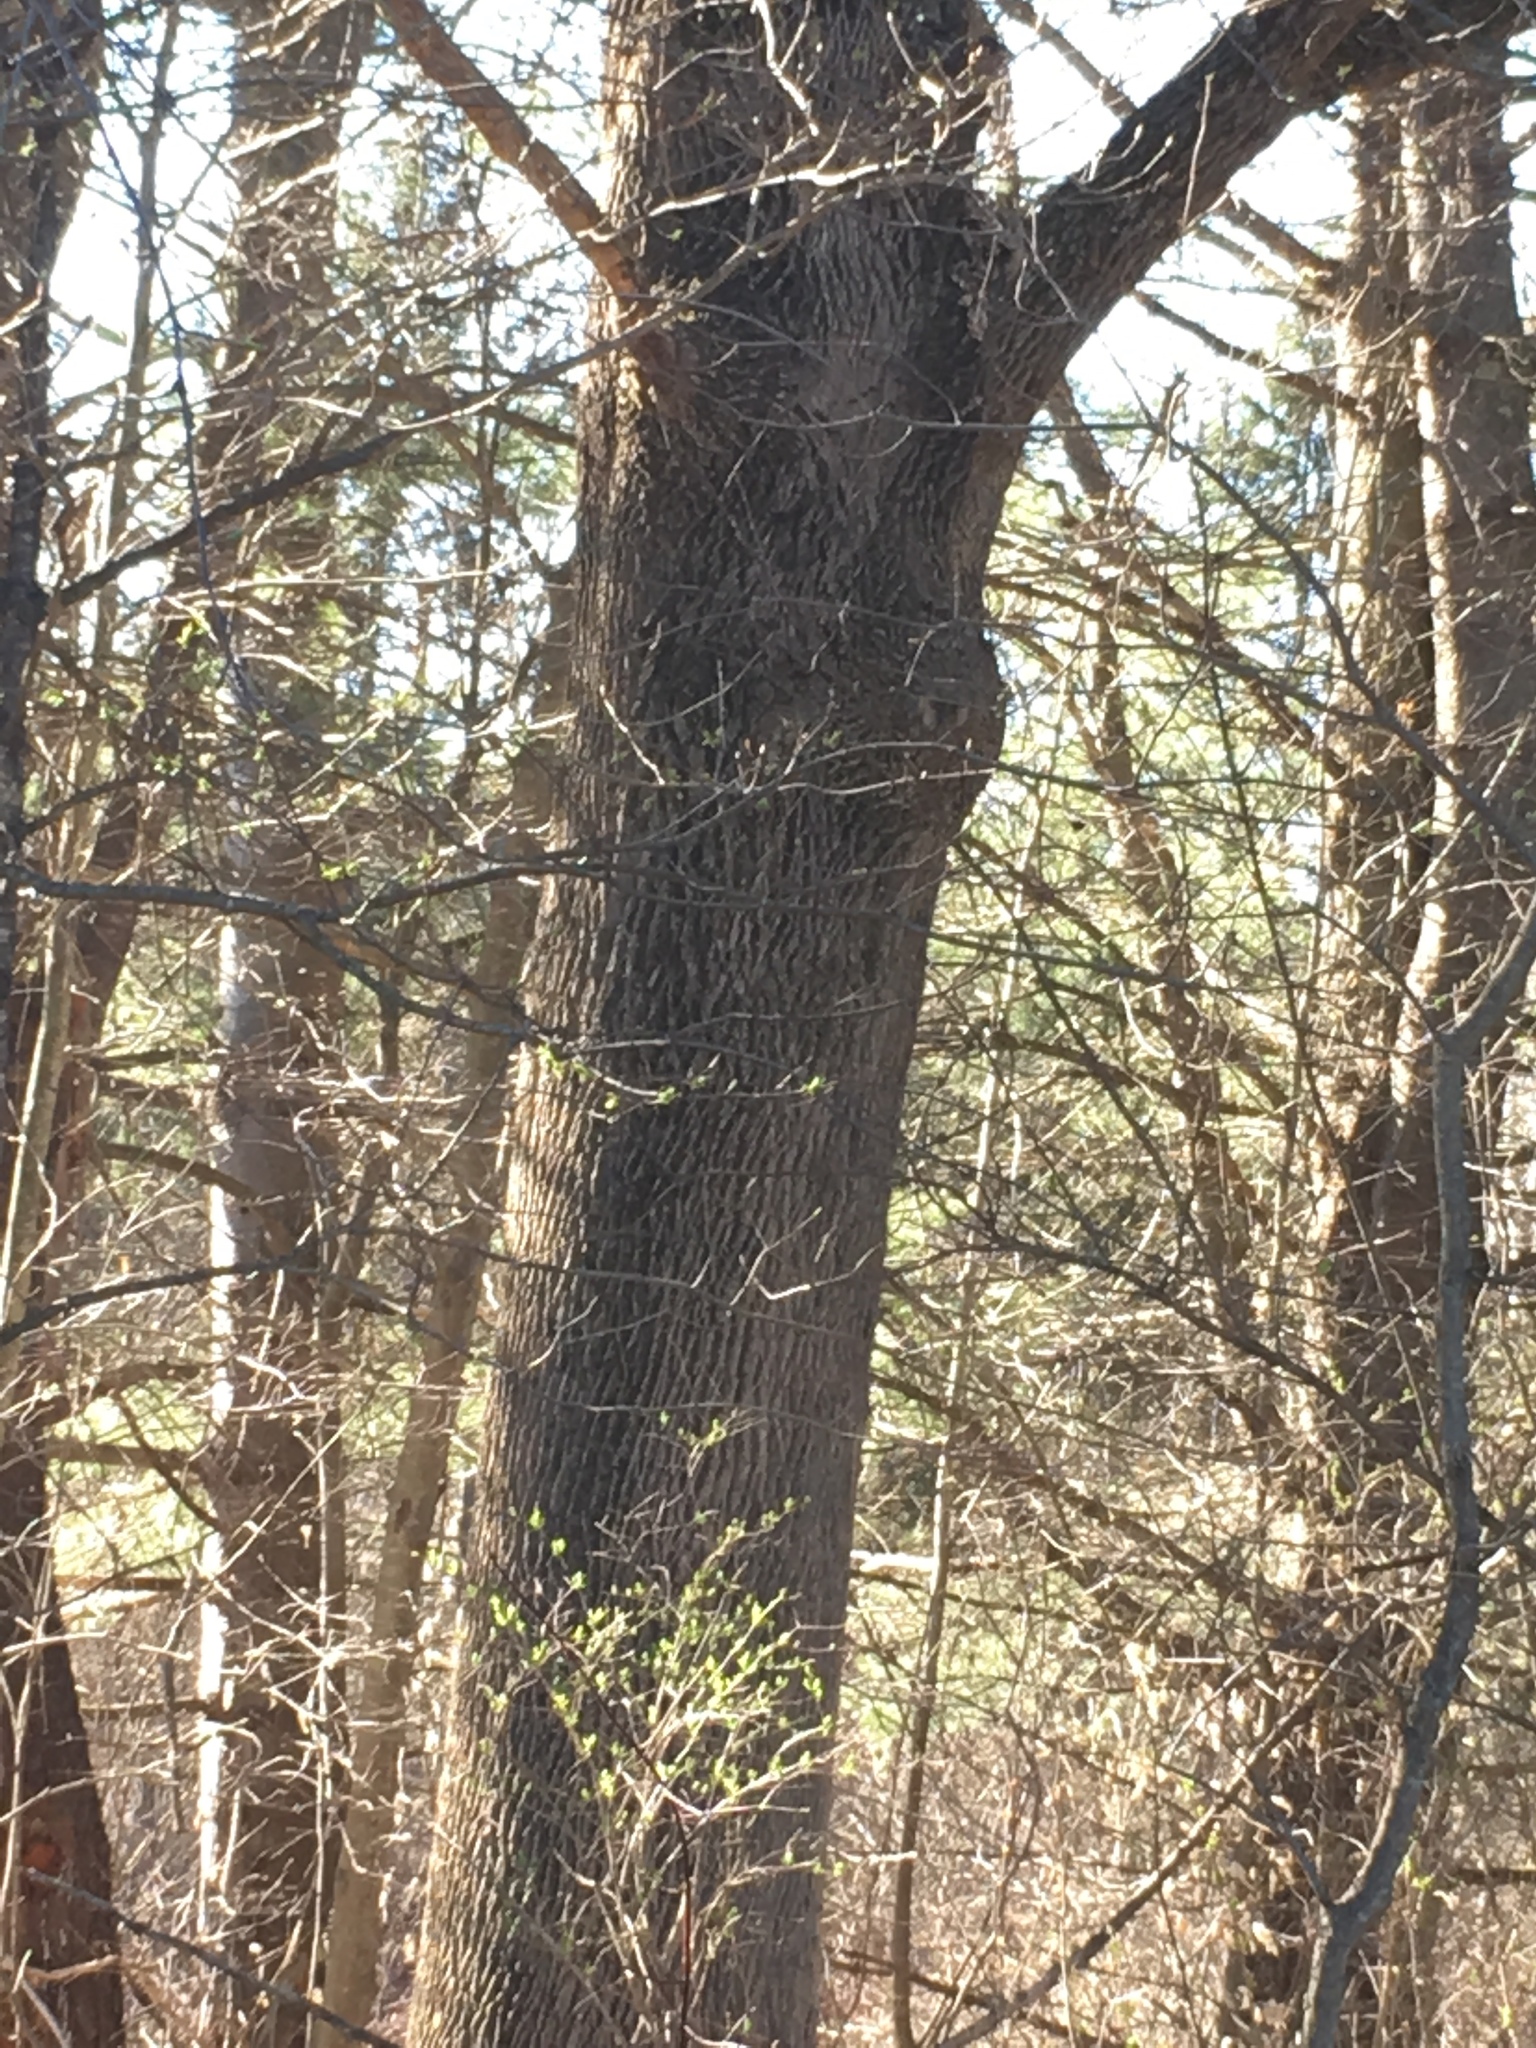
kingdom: Plantae
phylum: Tracheophyta
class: Magnoliopsida
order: Lamiales
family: Oleaceae
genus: Fraxinus
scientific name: Fraxinus americana
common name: White ash
